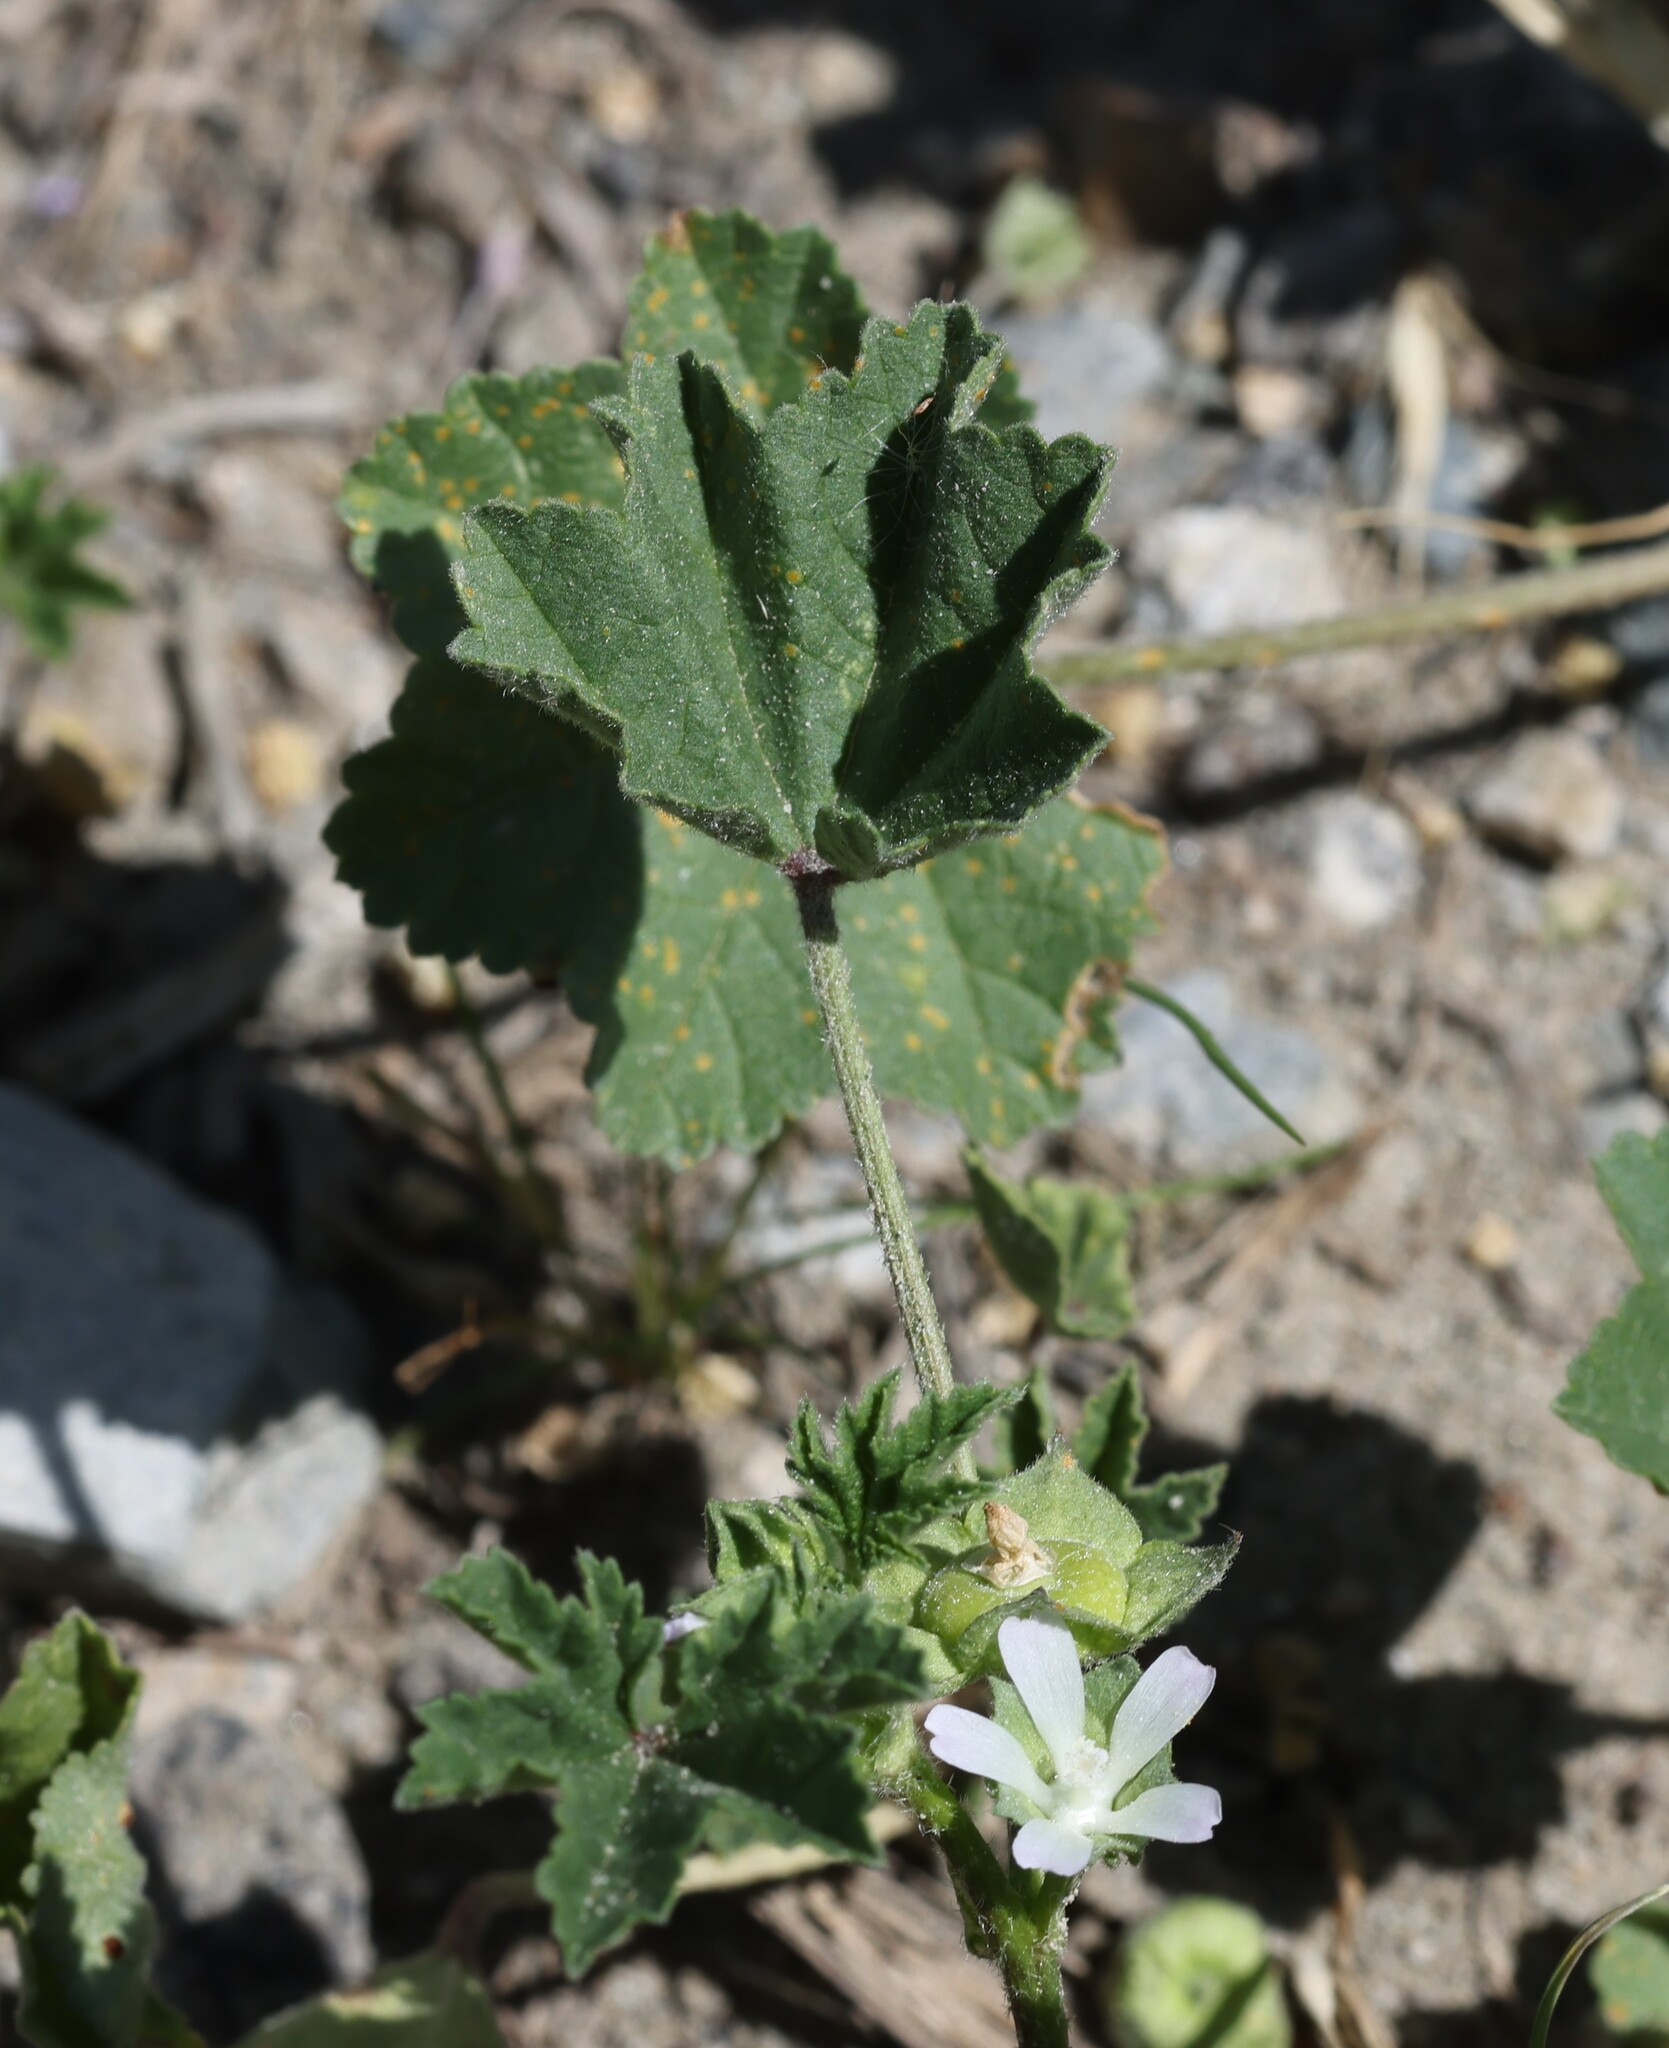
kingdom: Plantae
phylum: Tracheophyta
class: Magnoliopsida
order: Malvales
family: Malvaceae
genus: Malva
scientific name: Malva parviflora
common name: Least mallow
